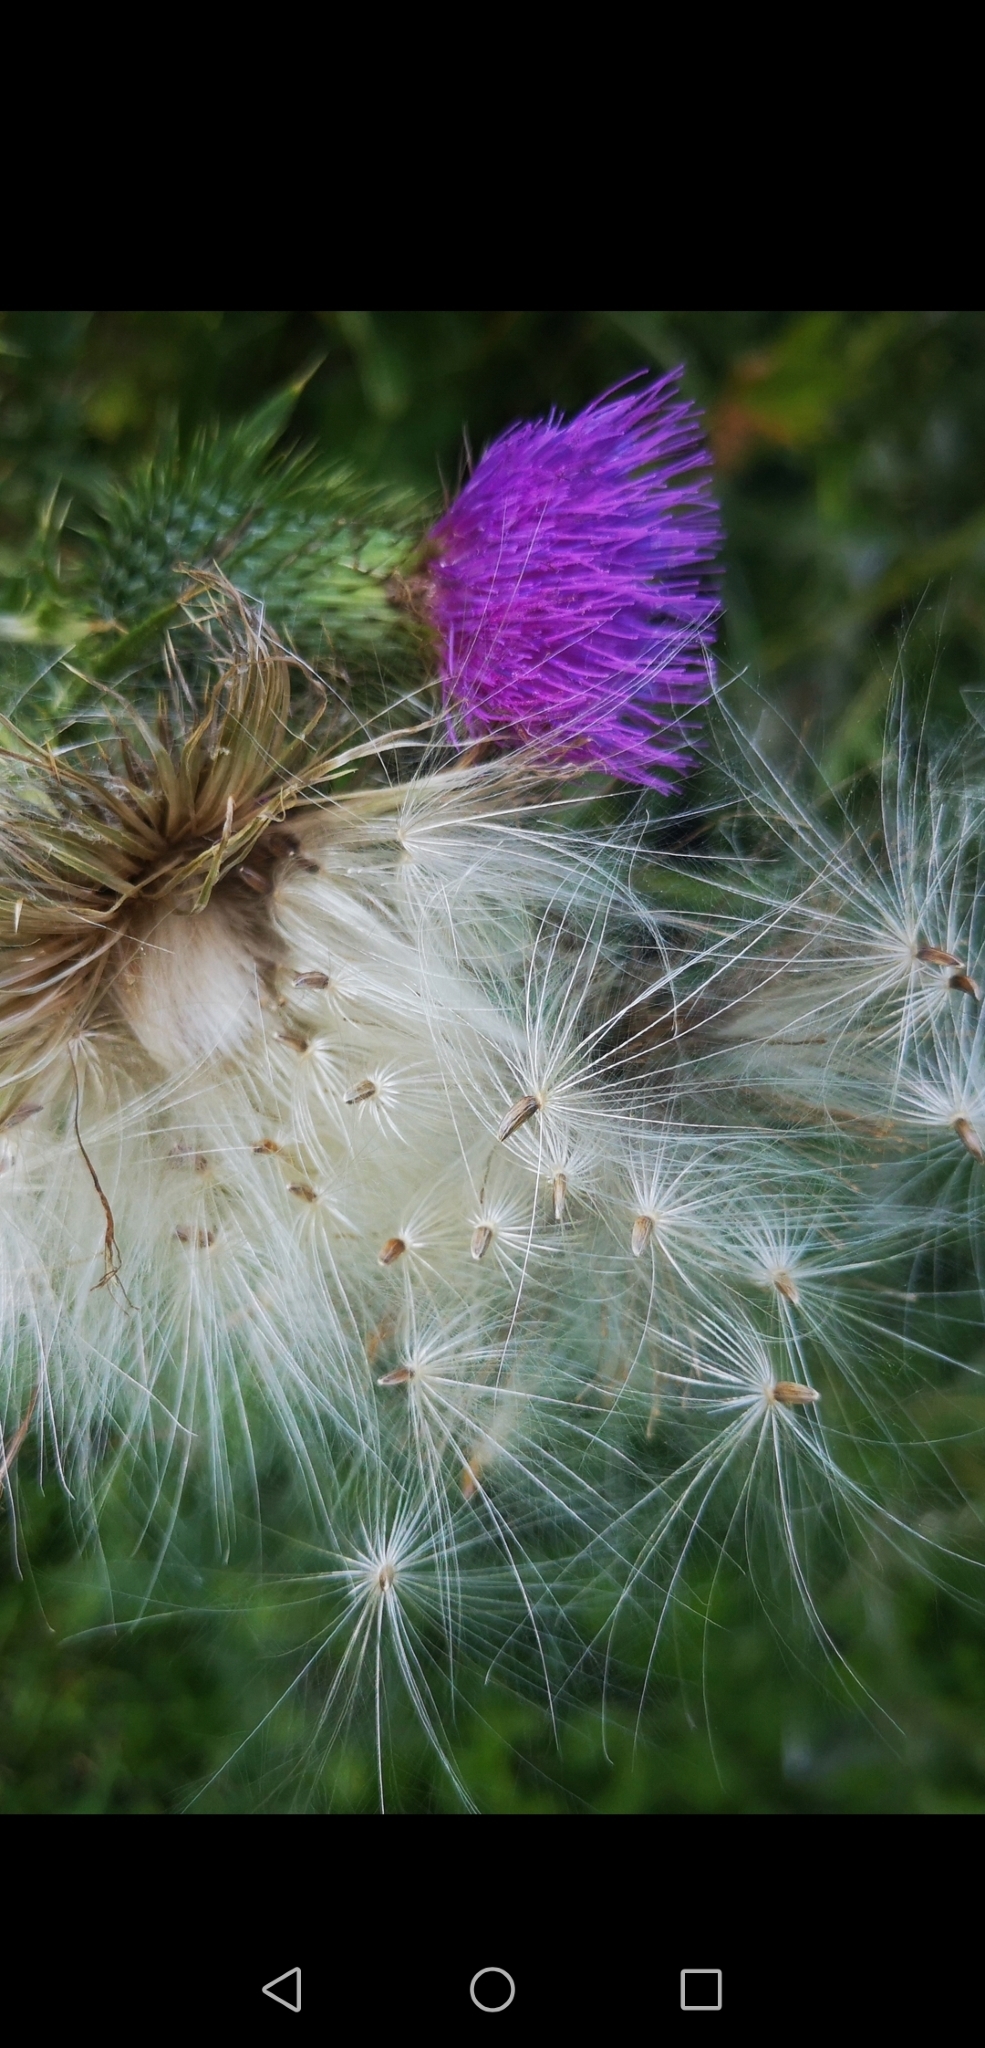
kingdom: Plantae
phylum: Tracheophyta
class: Magnoliopsida
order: Asterales
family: Asteraceae
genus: Cirsium
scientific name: Cirsium vulgare
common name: Bull thistle
